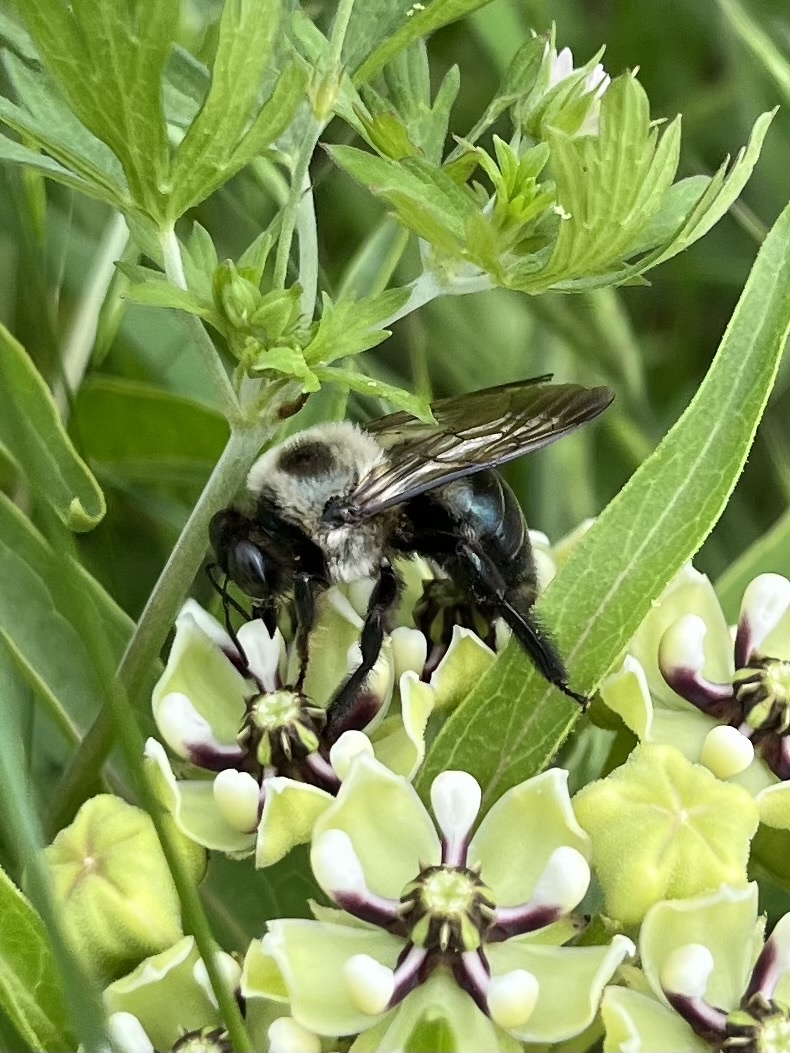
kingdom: Animalia
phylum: Arthropoda
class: Insecta
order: Hymenoptera
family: Apidae
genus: Xylocopa
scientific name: Xylocopa virginica
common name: Carpenter bee
